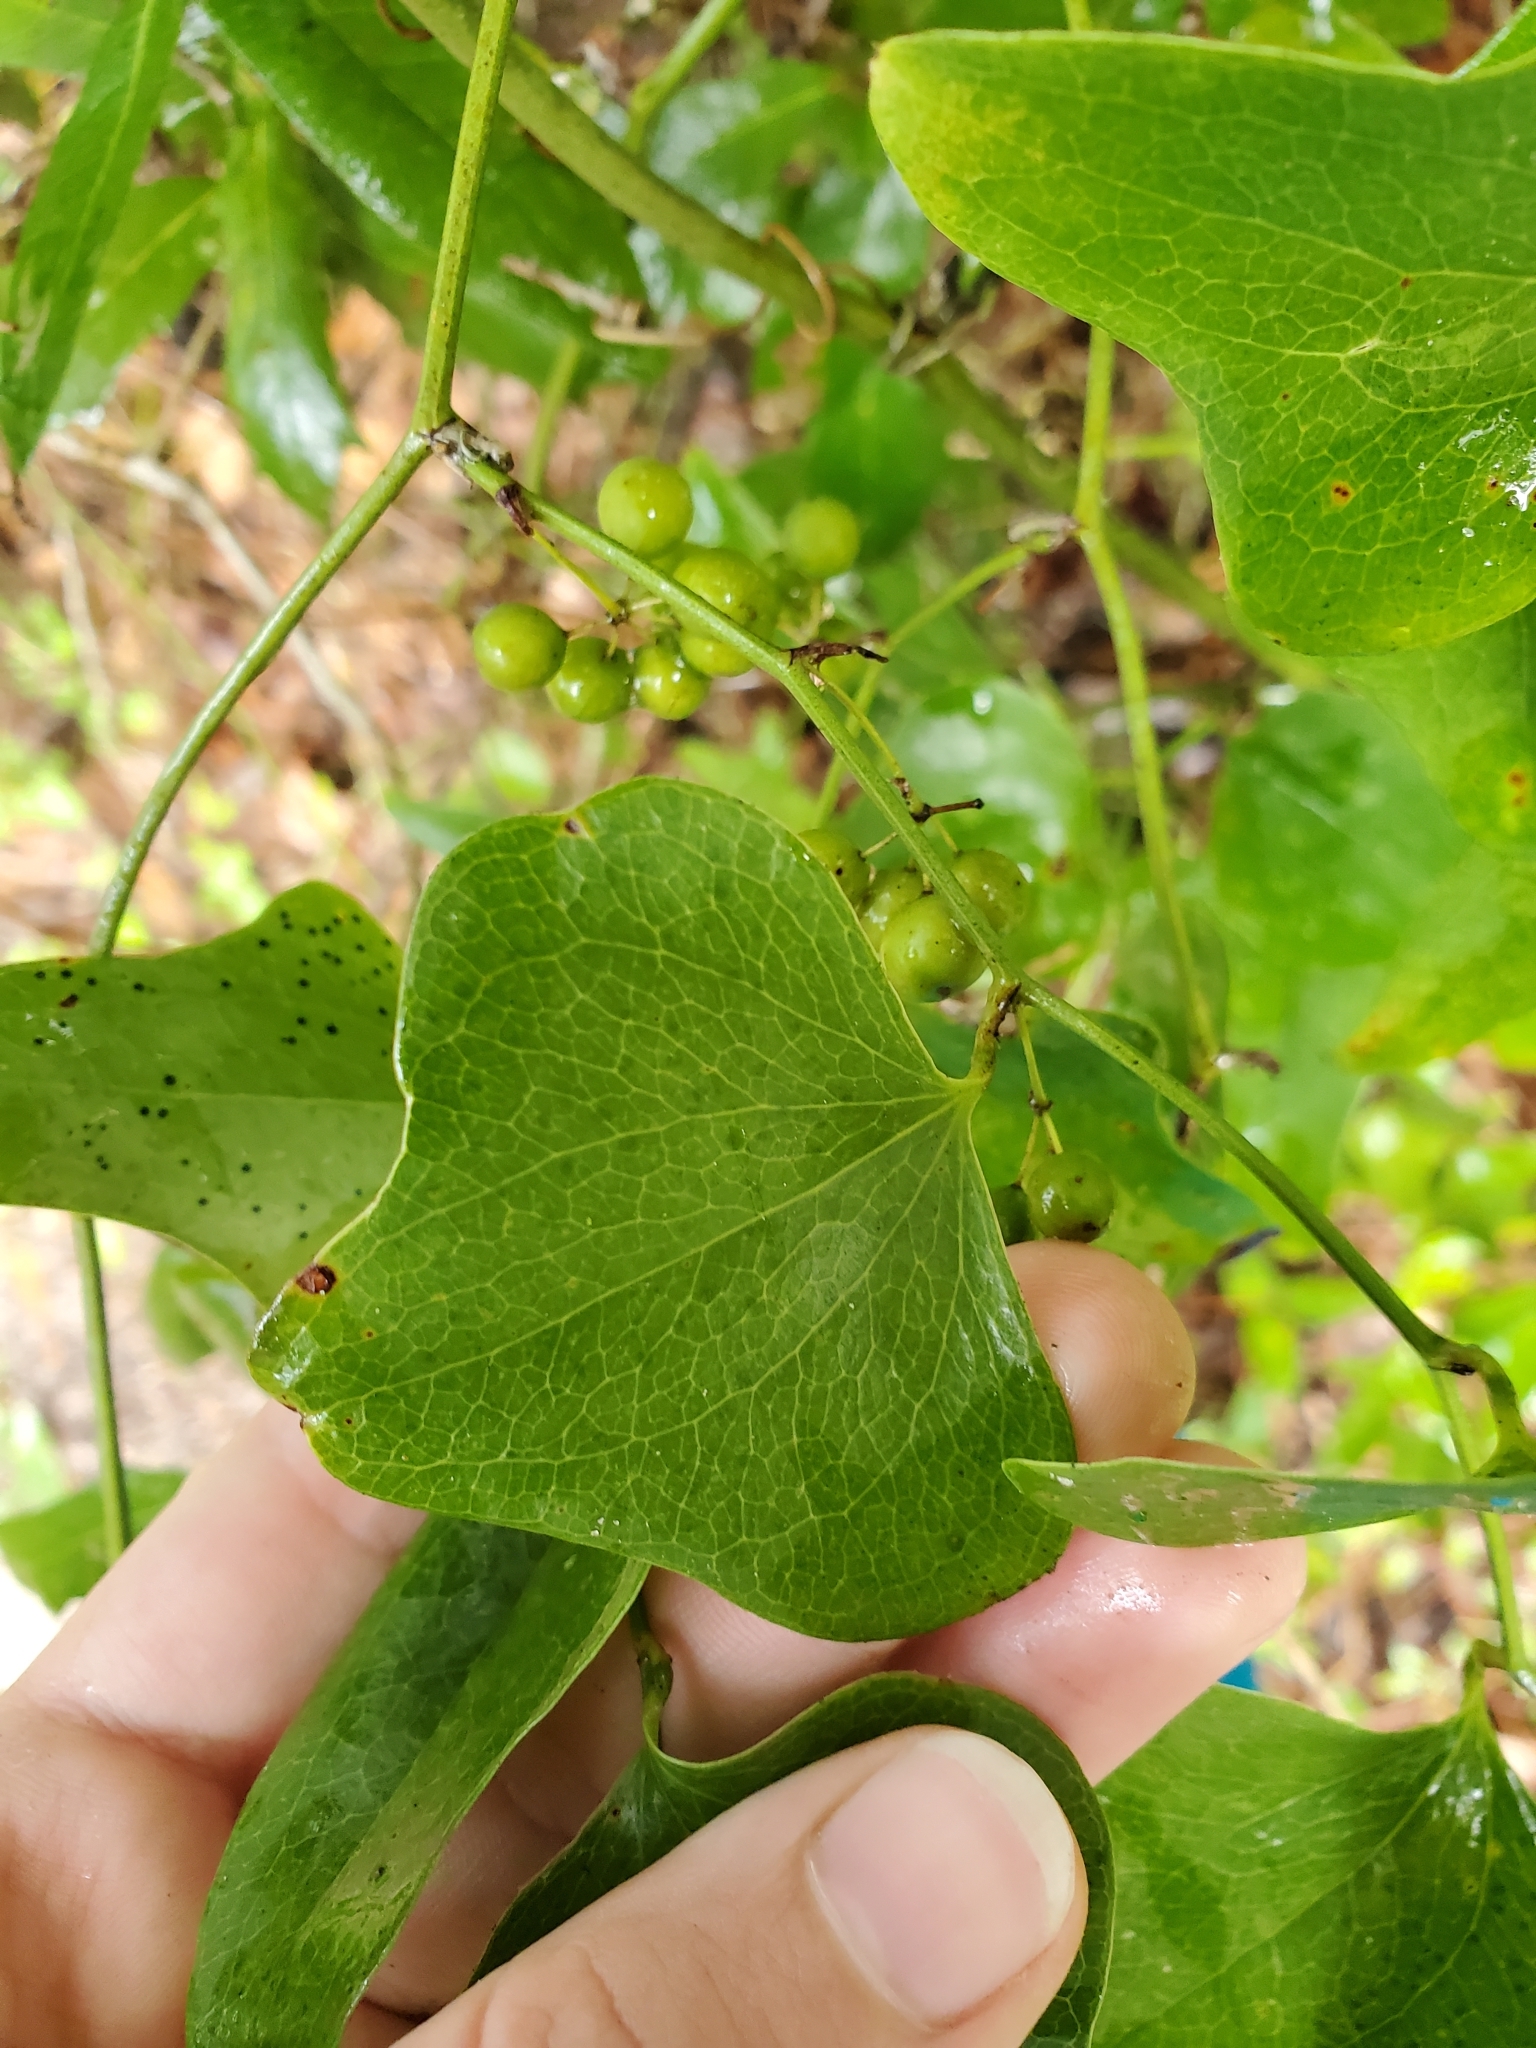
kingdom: Plantae
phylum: Tracheophyta
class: Liliopsida
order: Liliales
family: Smilacaceae
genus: Smilax
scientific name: Smilax bona-nox
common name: Catbrier
